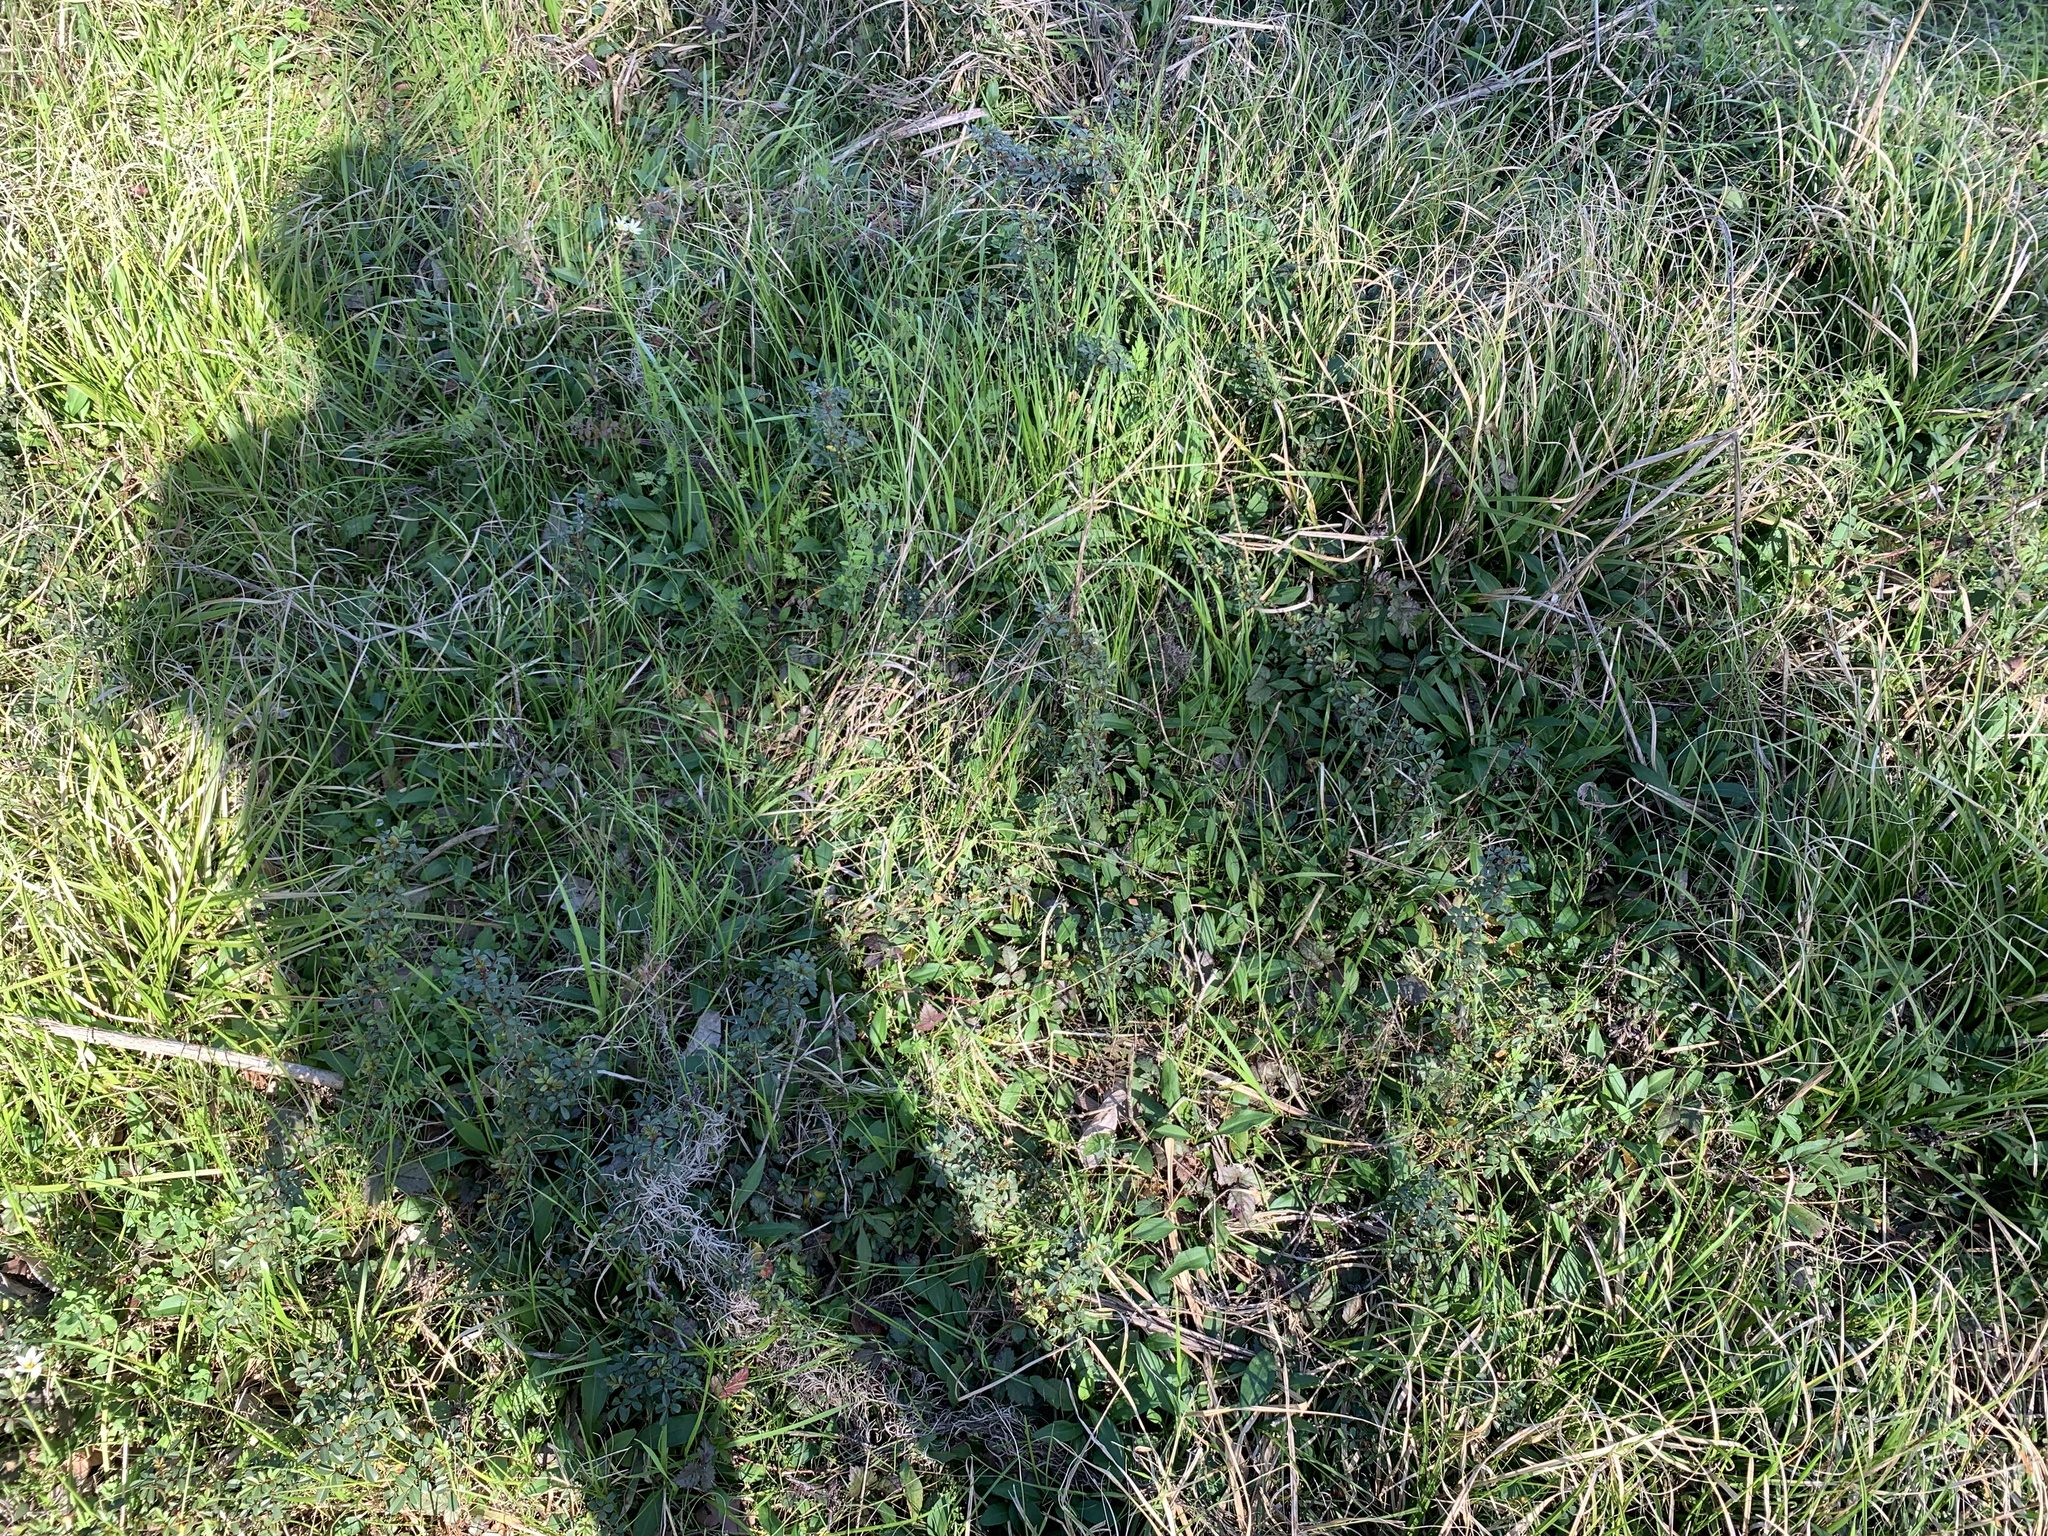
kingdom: Plantae
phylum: Tracheophyta
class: Magnoliopsida
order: Rosales
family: Rosaceae
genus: Rosa
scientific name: Rosa bracteata
